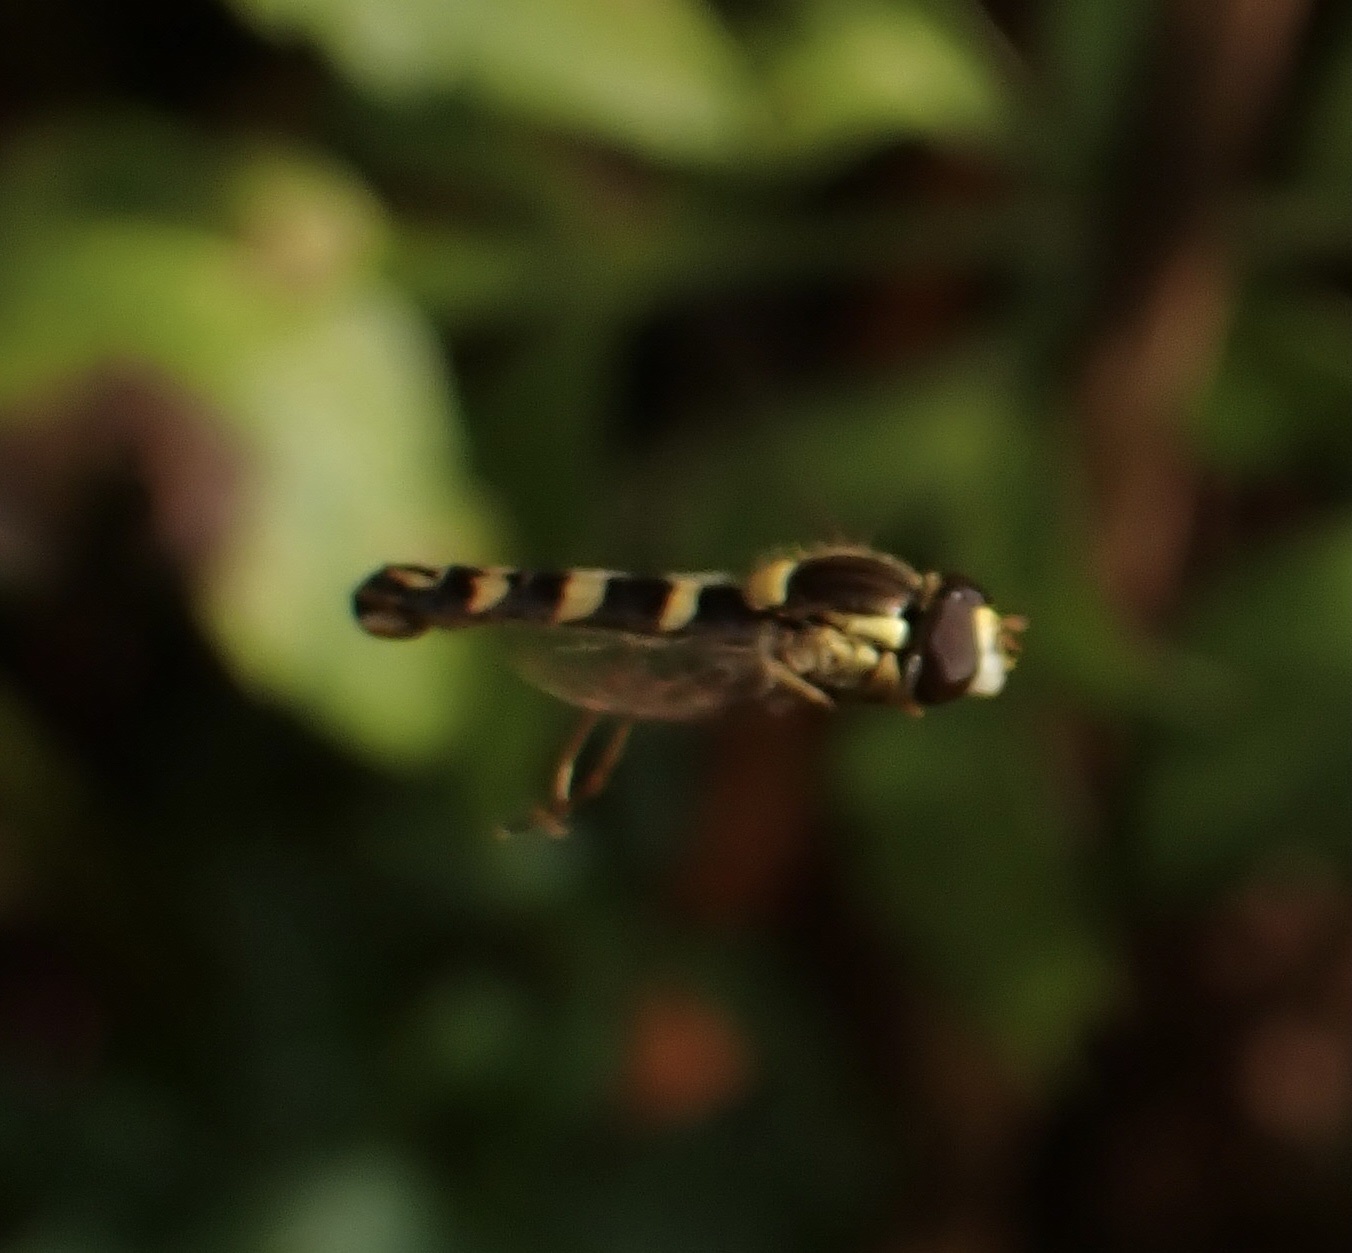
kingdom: Animalia
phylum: Arthropoda
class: Insecta
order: Diptera
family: Syrphidae
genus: Sphaerophoria
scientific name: Sphaerophoria
